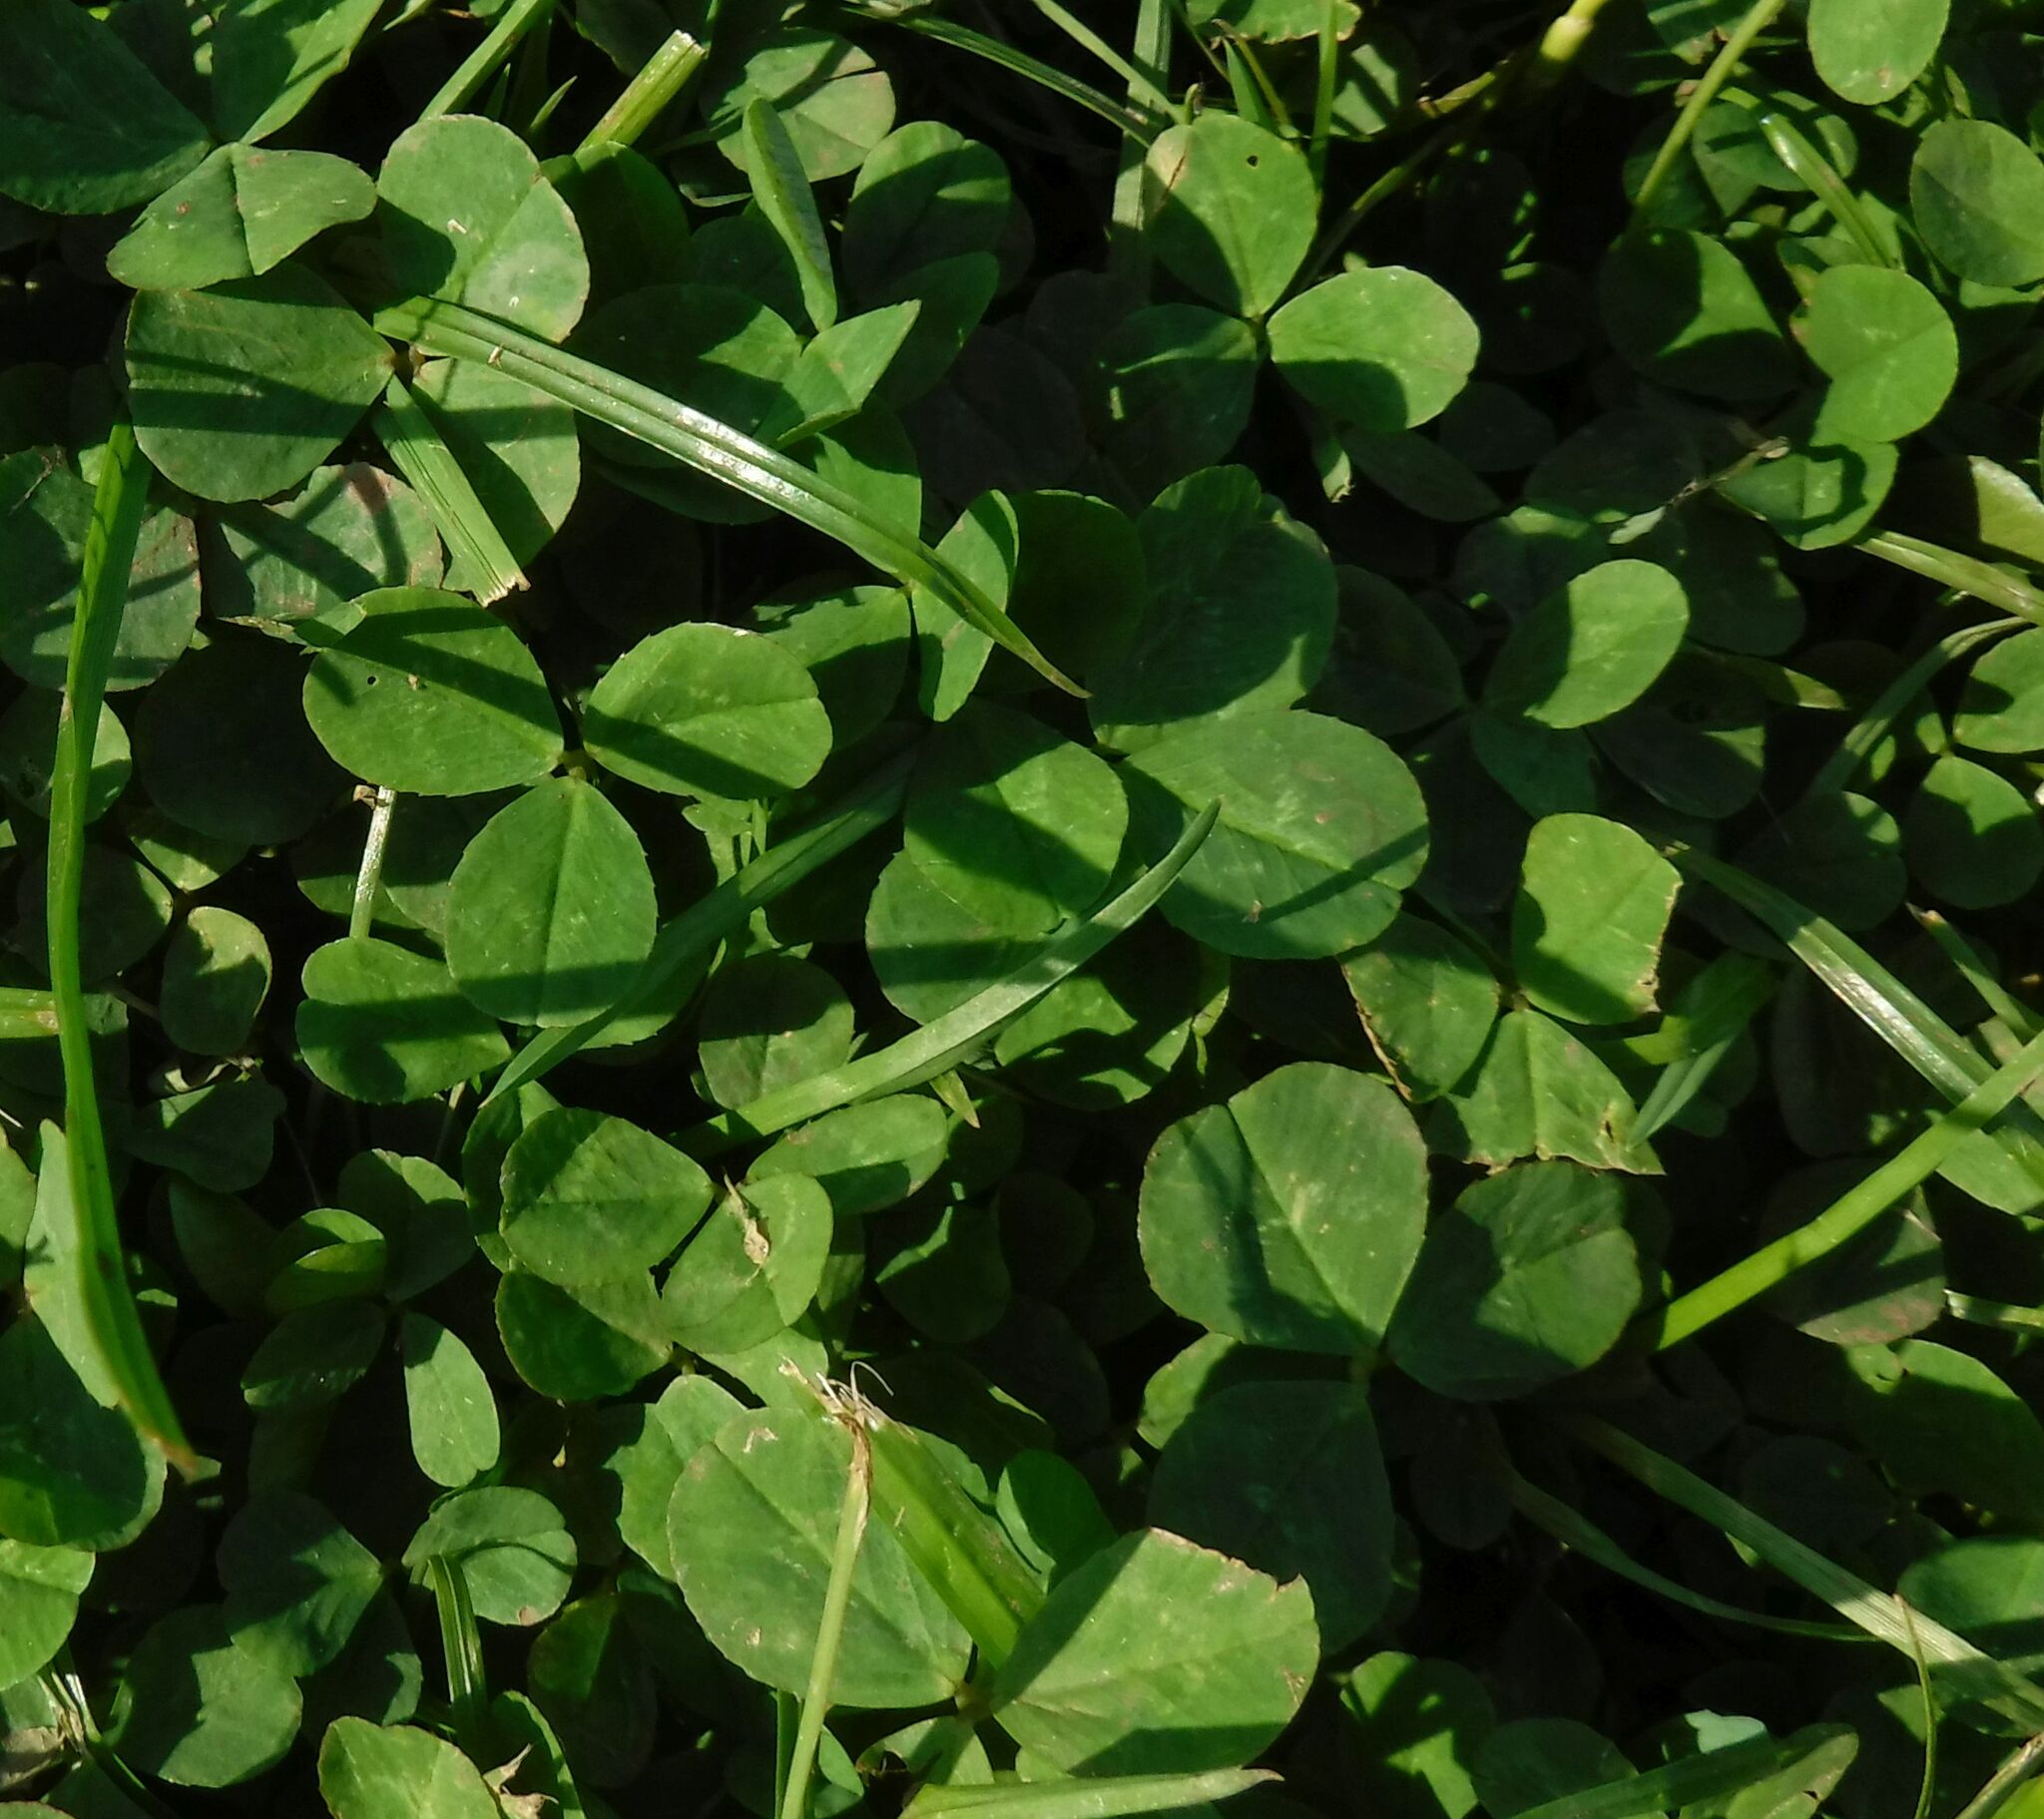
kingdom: Plantae
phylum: Tracheophyta
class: Magnoliopsida
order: Fabales
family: Fabaceae
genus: Trifolium
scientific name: Trifolium repens
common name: White clover
